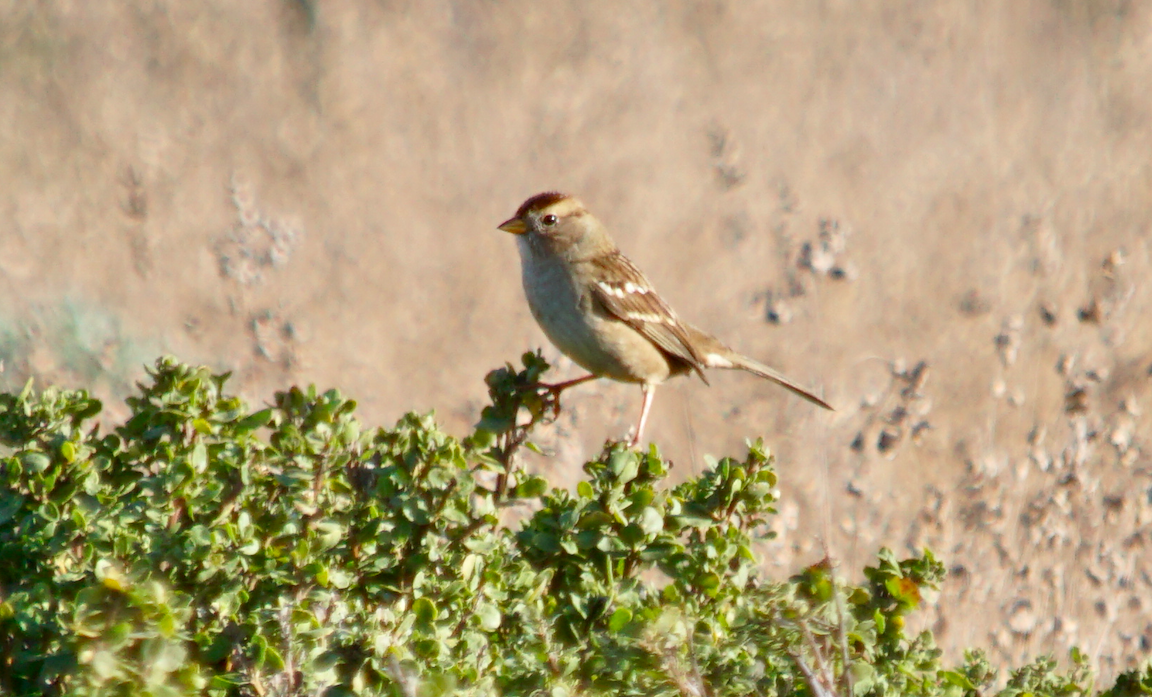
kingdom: Animalia
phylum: Chordata
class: Aves
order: Passeriformes
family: Passerellidae
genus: Zonotrichia
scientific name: Zonotrichia leucophrys
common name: White-crowned sparrow
